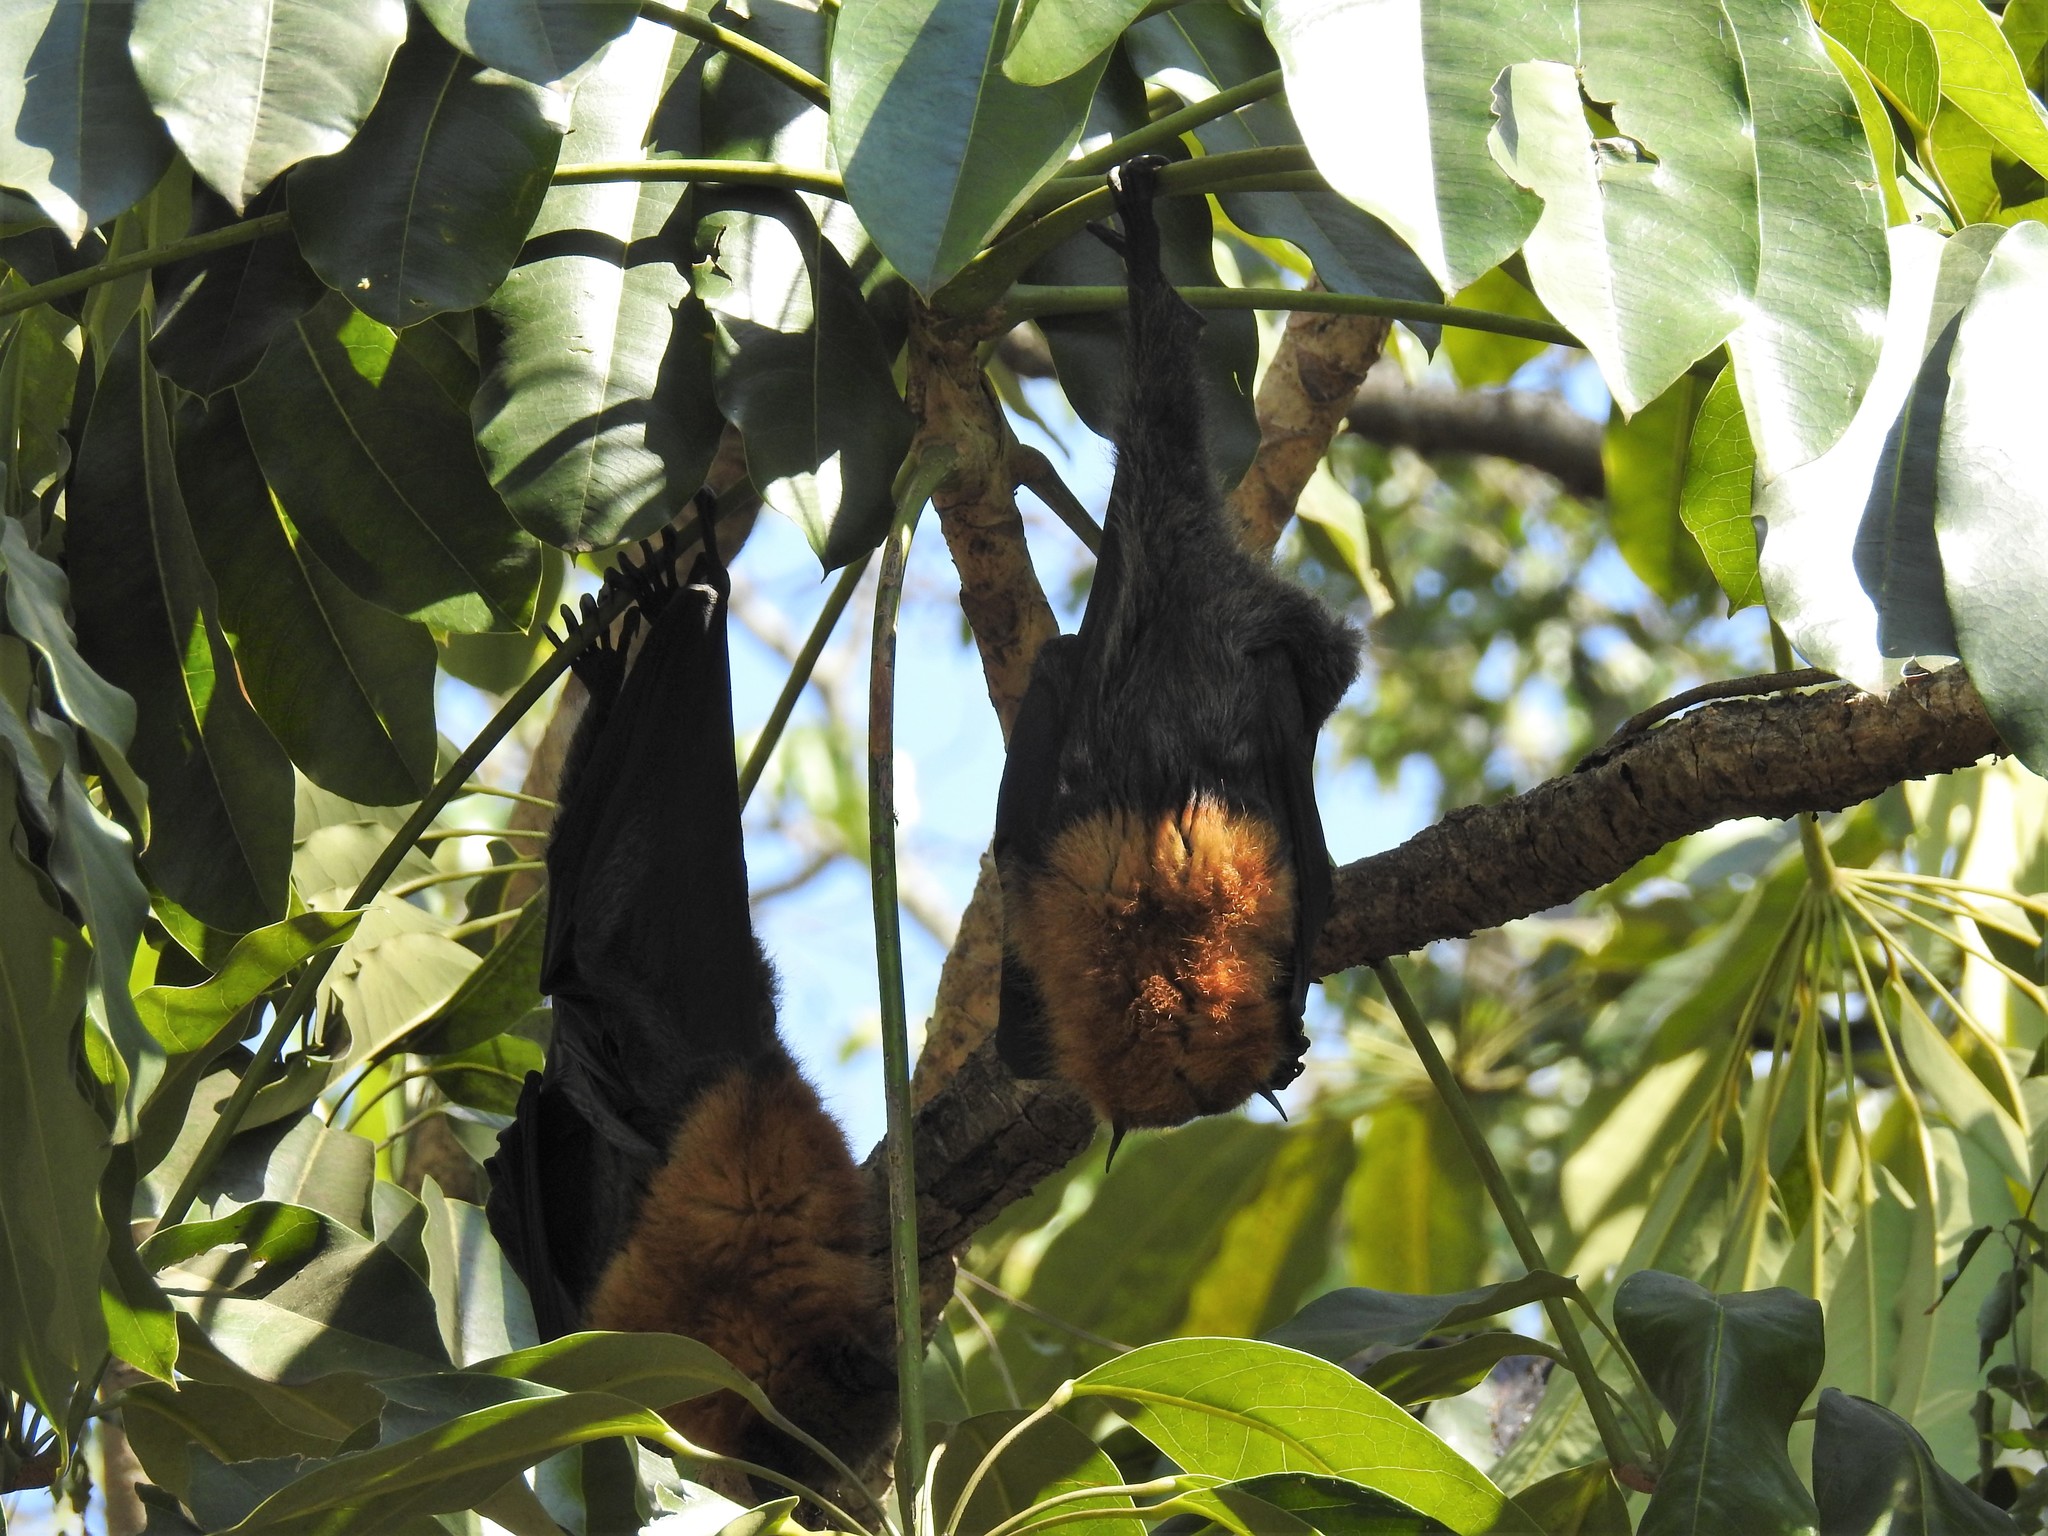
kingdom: Animalia
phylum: Chordata
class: Mammalia
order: Chiroptera
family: Pteropodidae
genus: Pteropus
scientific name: Pteropus poliocephalus
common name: Gray-headed flying fox
